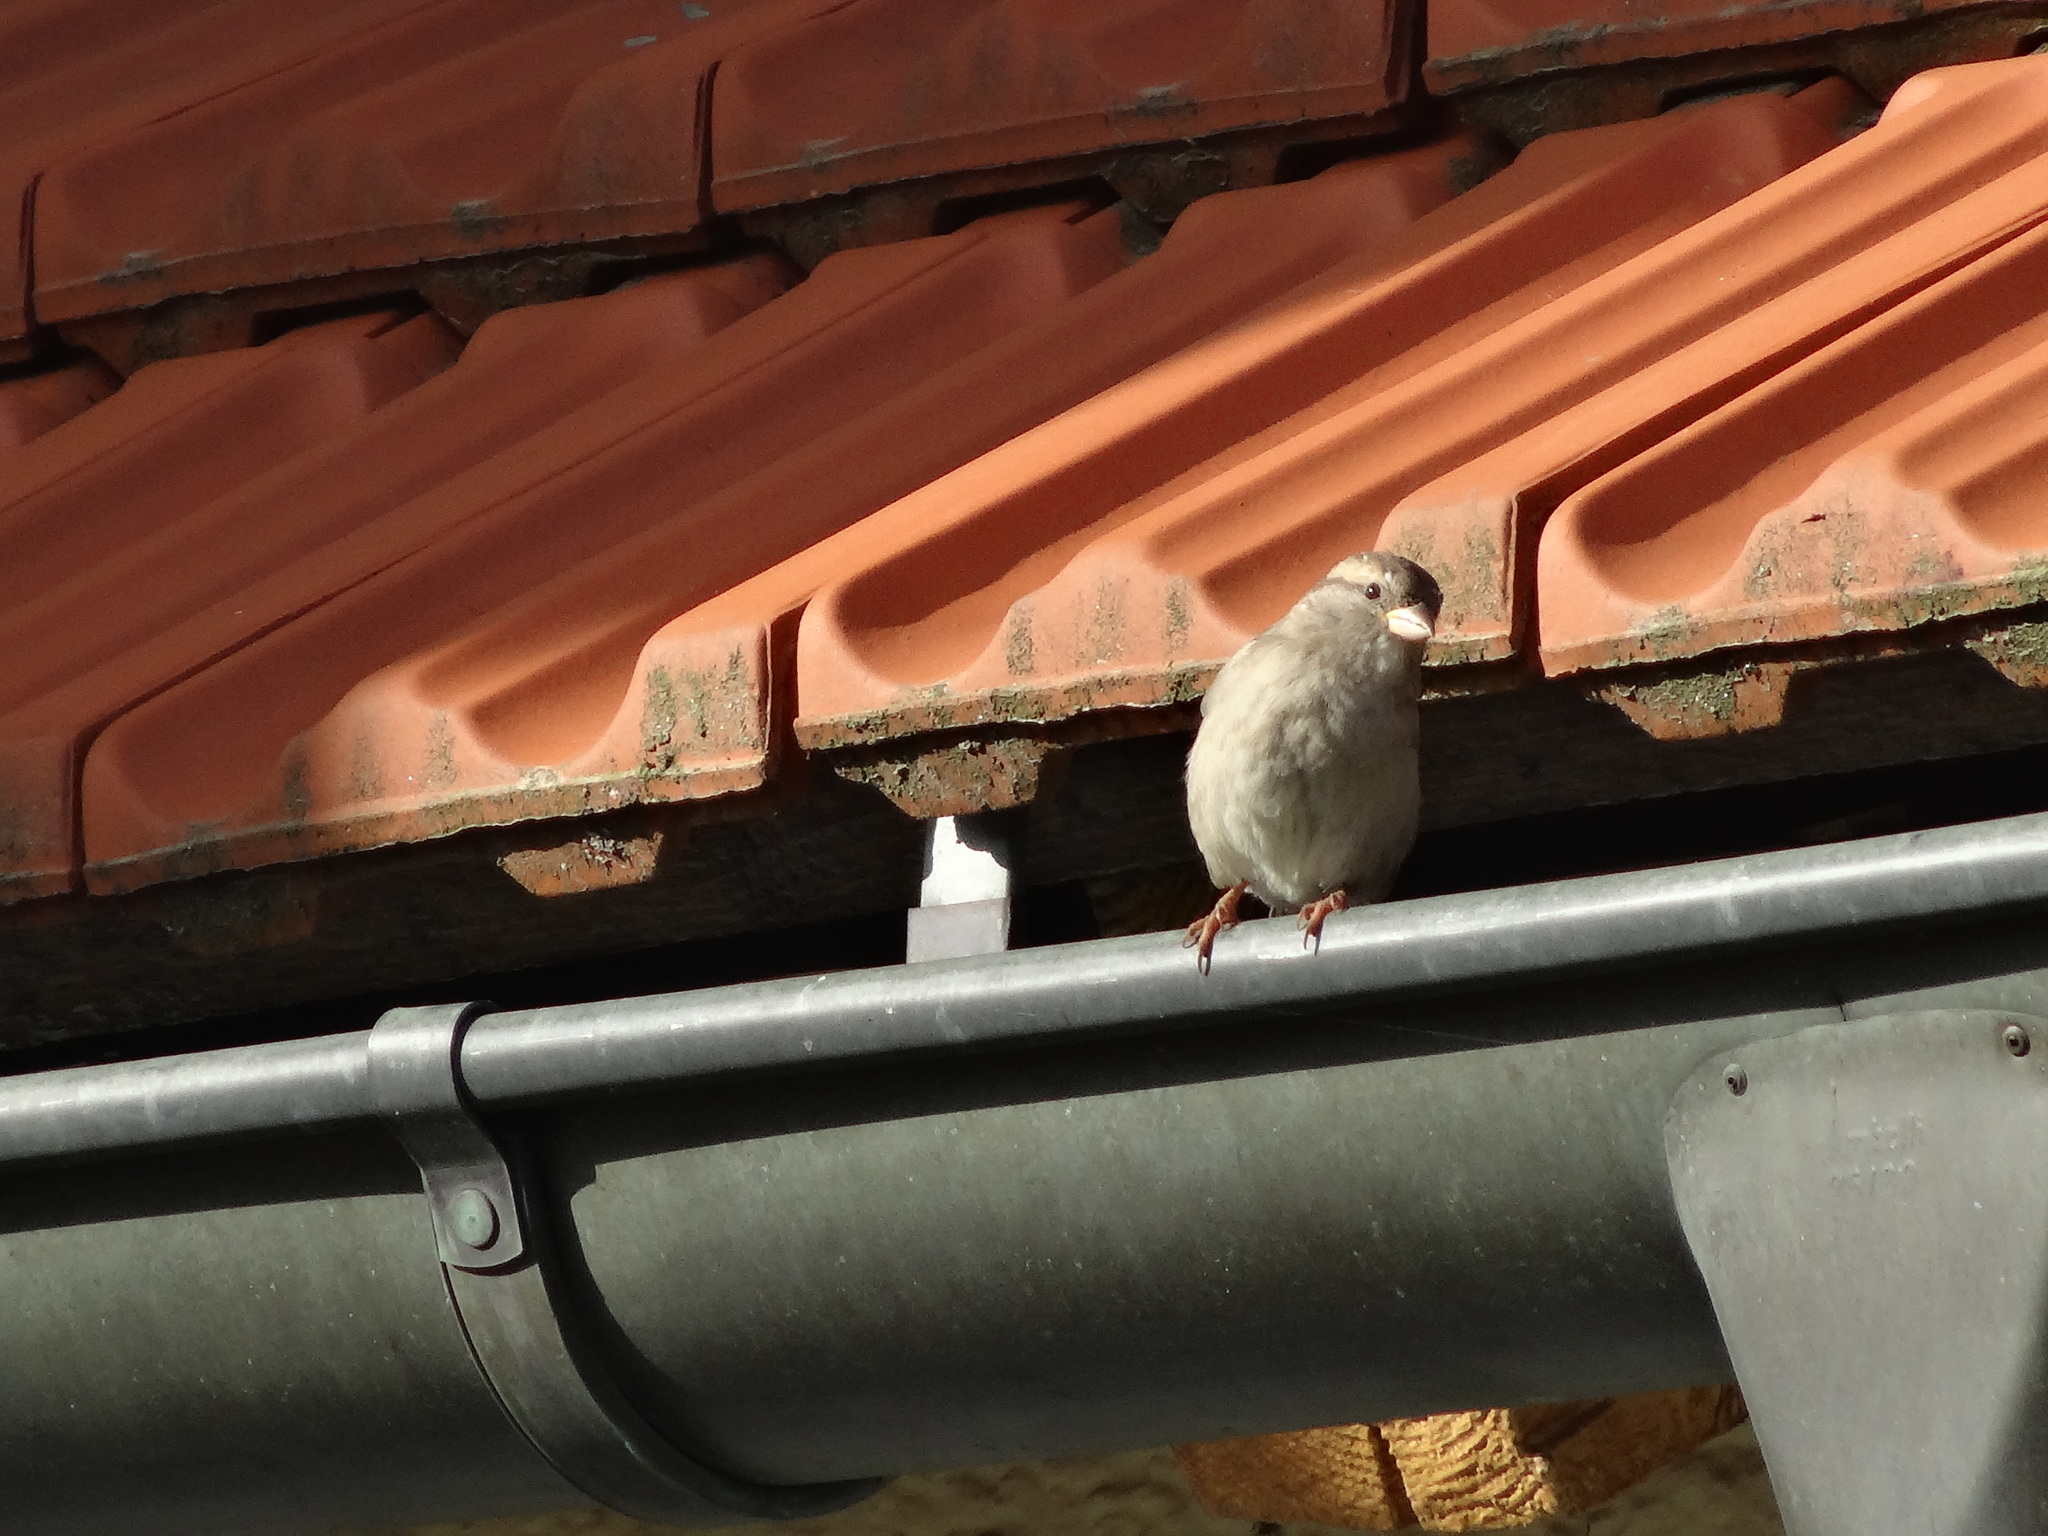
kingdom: Animalia
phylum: Chordata
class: Aves
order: Passeriformes
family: Passeridae
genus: Passer
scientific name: Passer domesticus
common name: House sparrow
